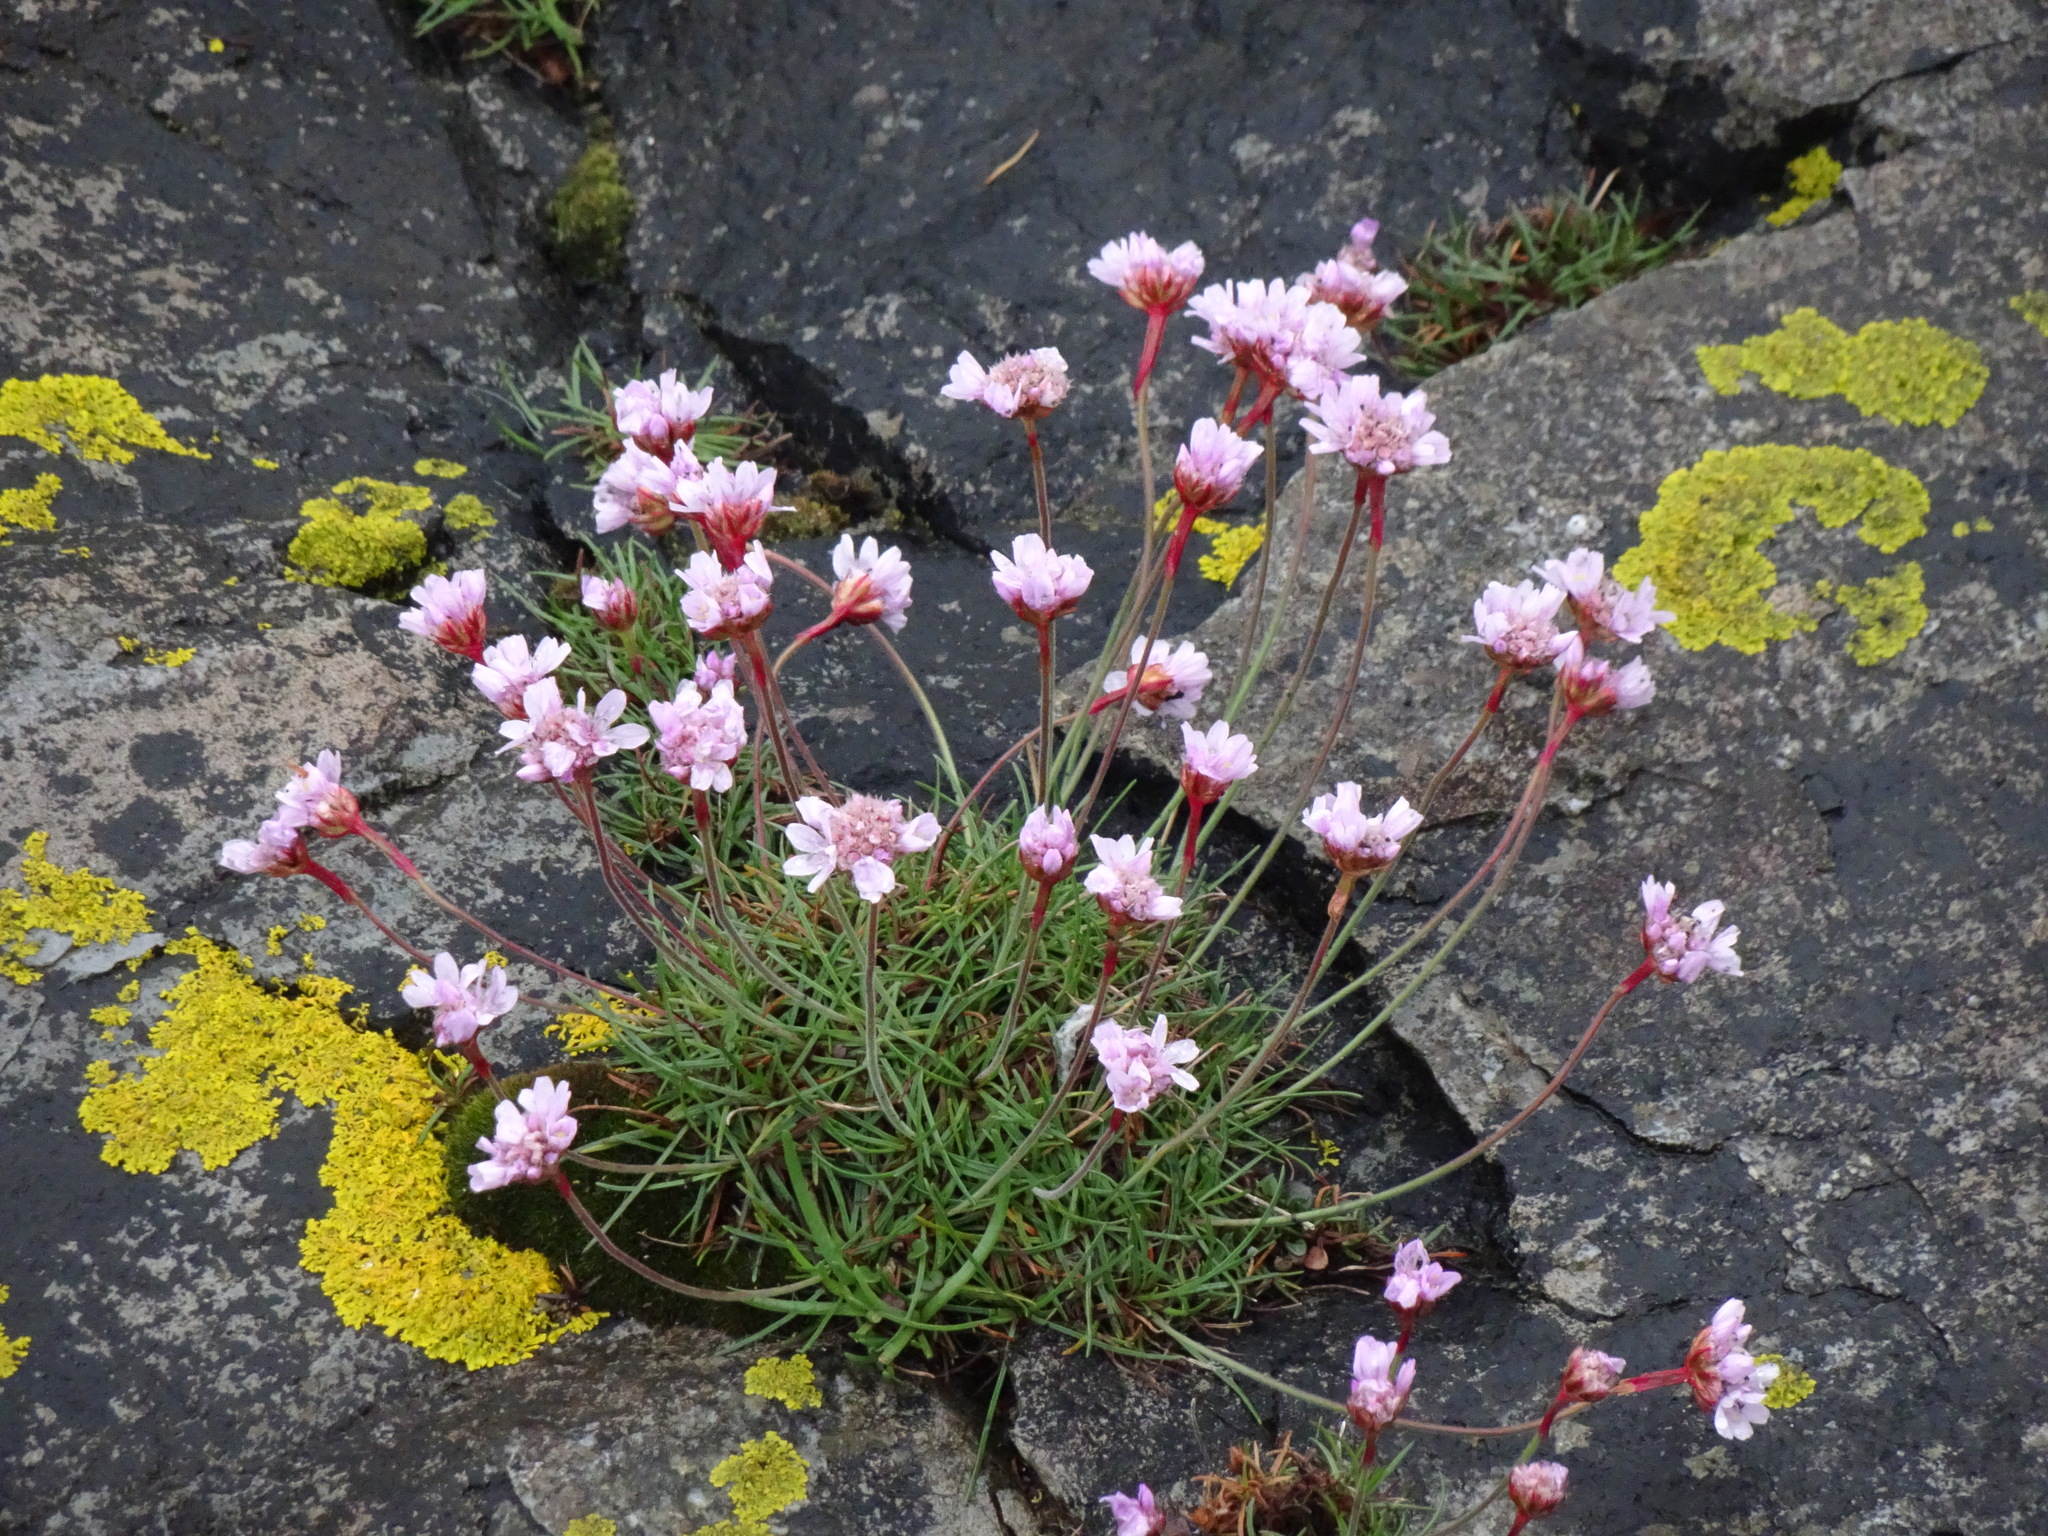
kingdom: Plantae
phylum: Tracheophyta
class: Magnoliopsida
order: Caryophyllales
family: Plumbaginaceae
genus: Armeria
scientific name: Armeria maritima
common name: Thrift
